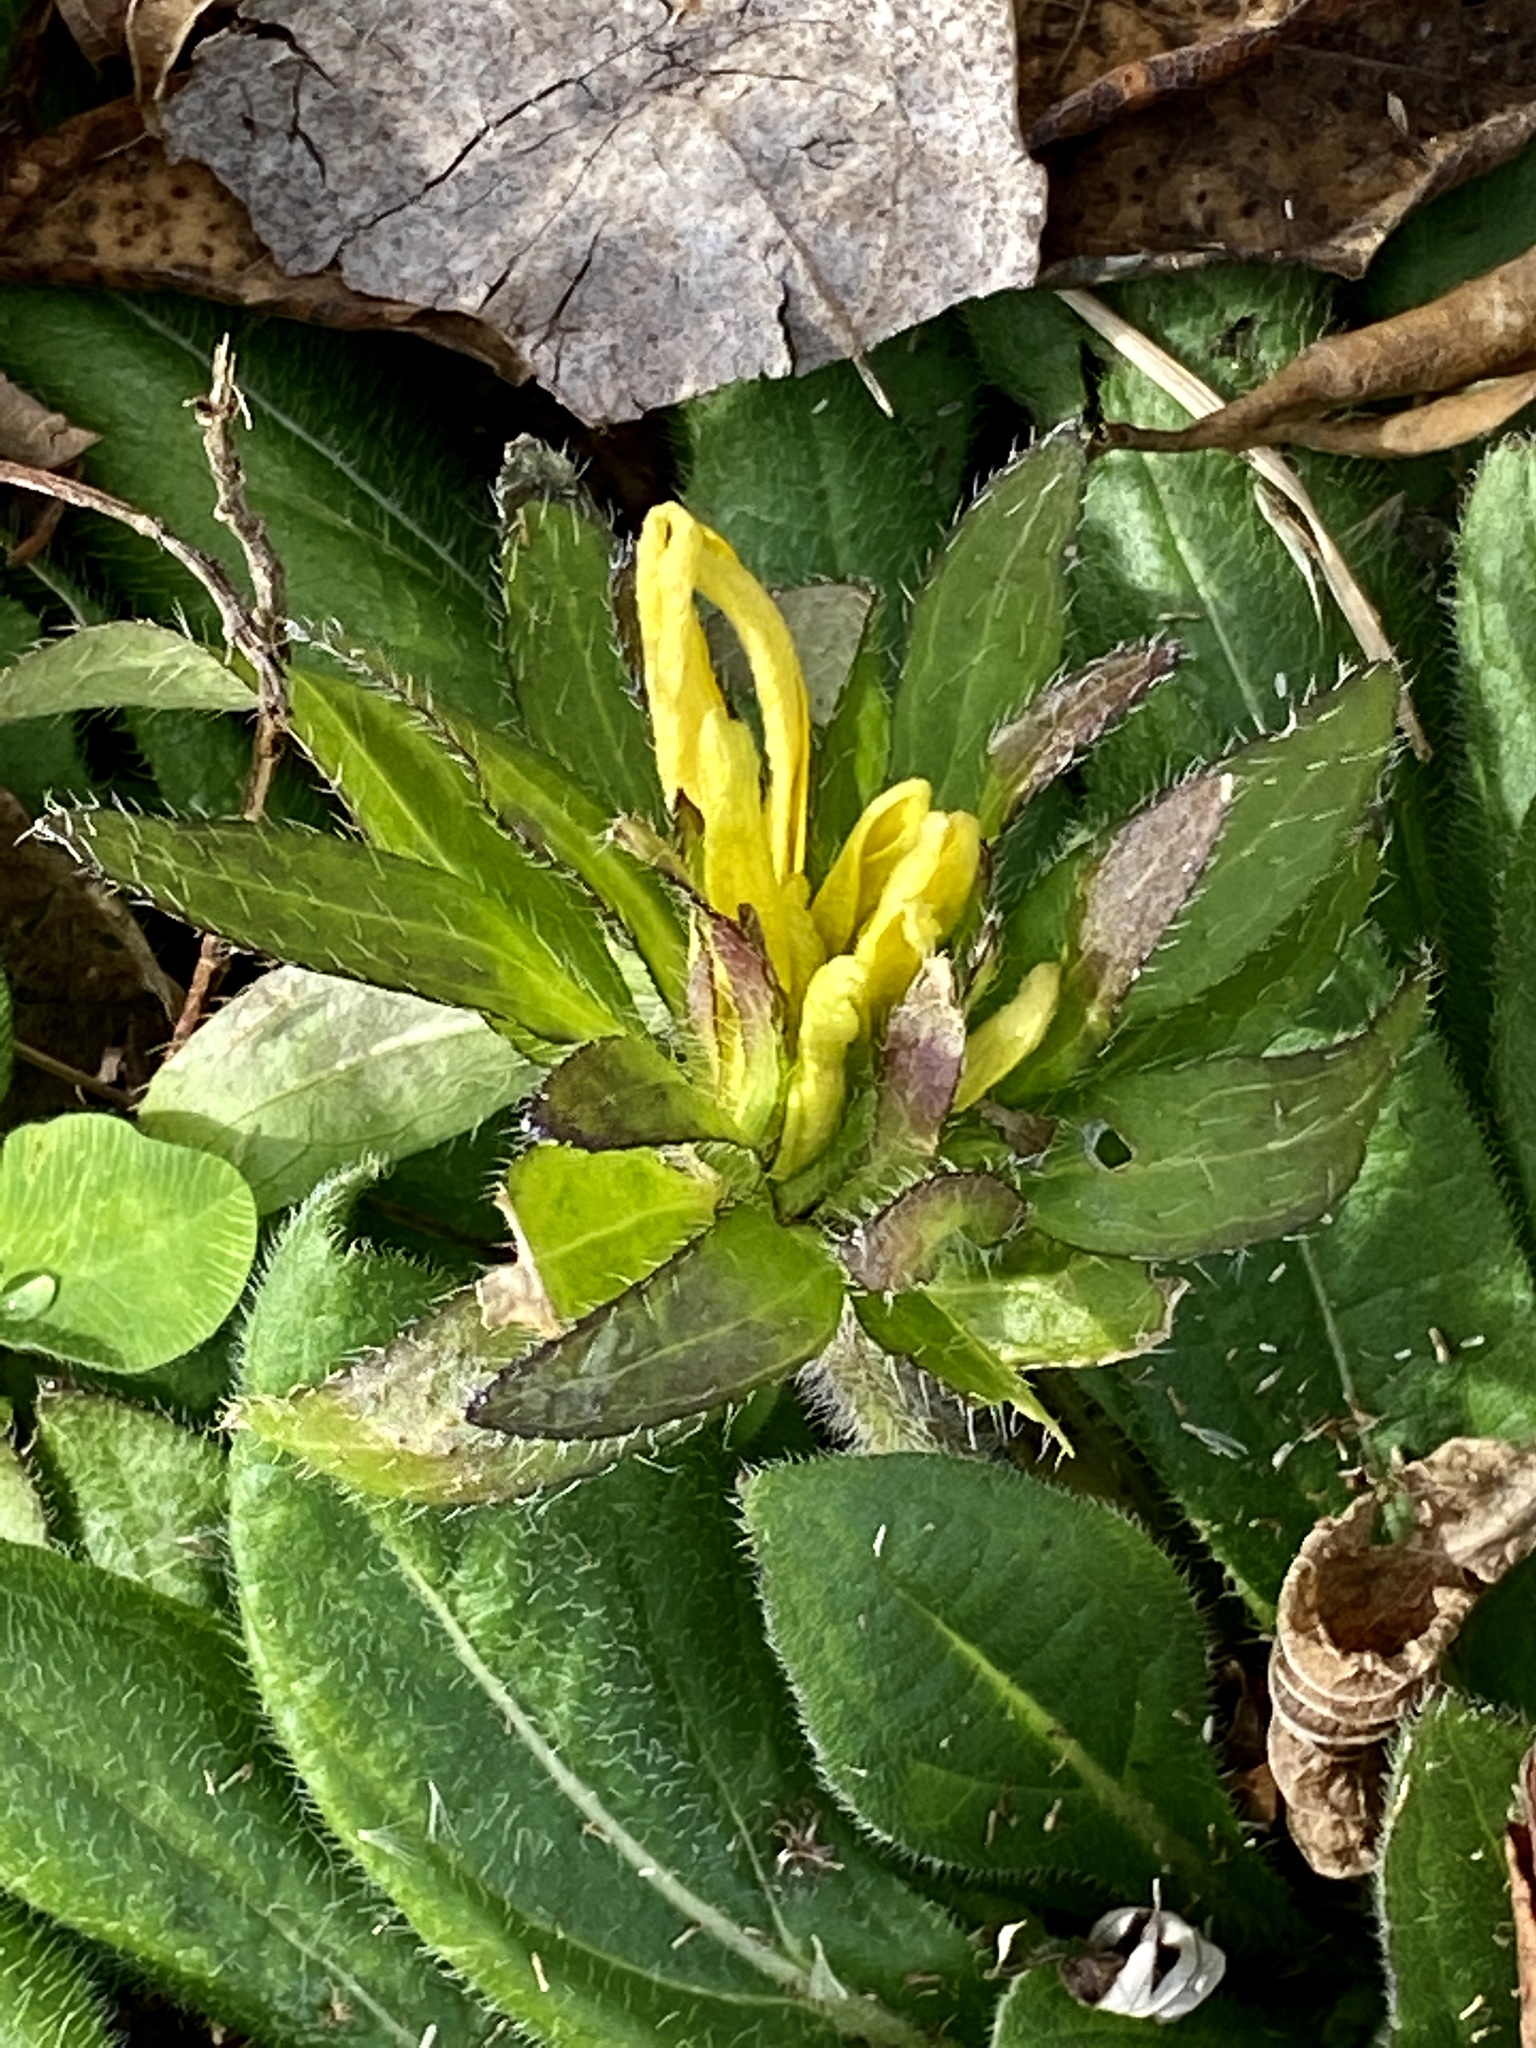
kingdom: Plantae
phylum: Tracheophyta
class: Magnoliopsida
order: Asterales
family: Asteraceae
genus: Rudbeckia
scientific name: Rudbeckia hirta
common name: Black-eyed-susan
